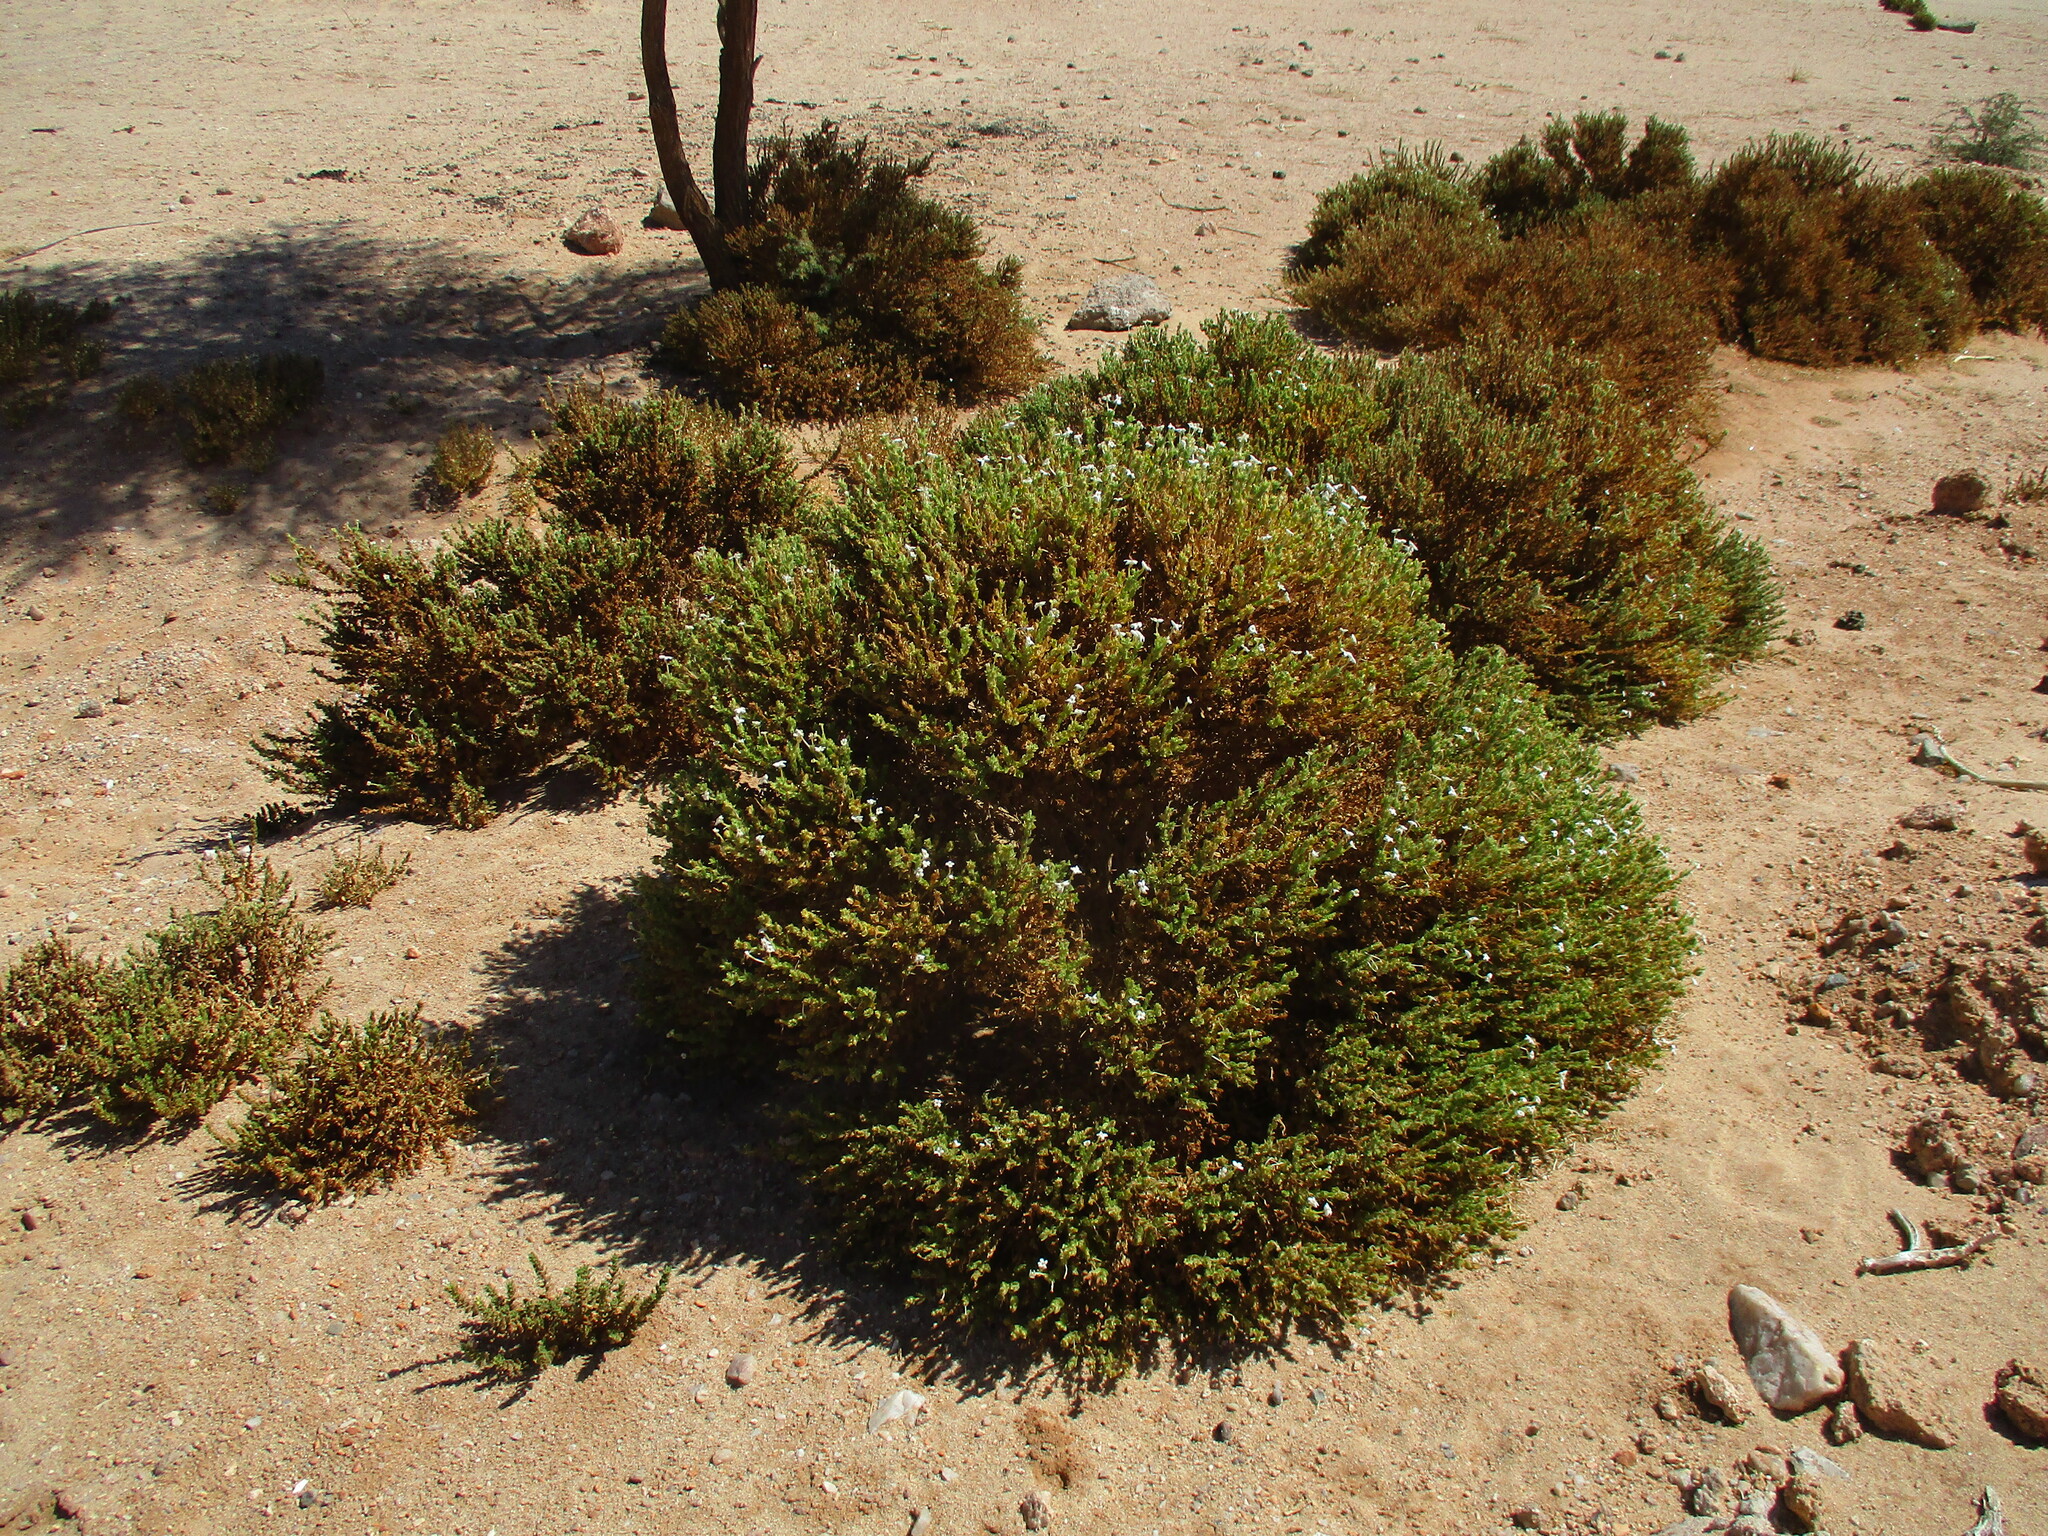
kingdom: Plantae
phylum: Tracheophyta
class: Magnoliopsida
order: Lamiales
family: Scrophulariaceae
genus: Jamesbrittenia
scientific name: Jamesbrittenia maxii
